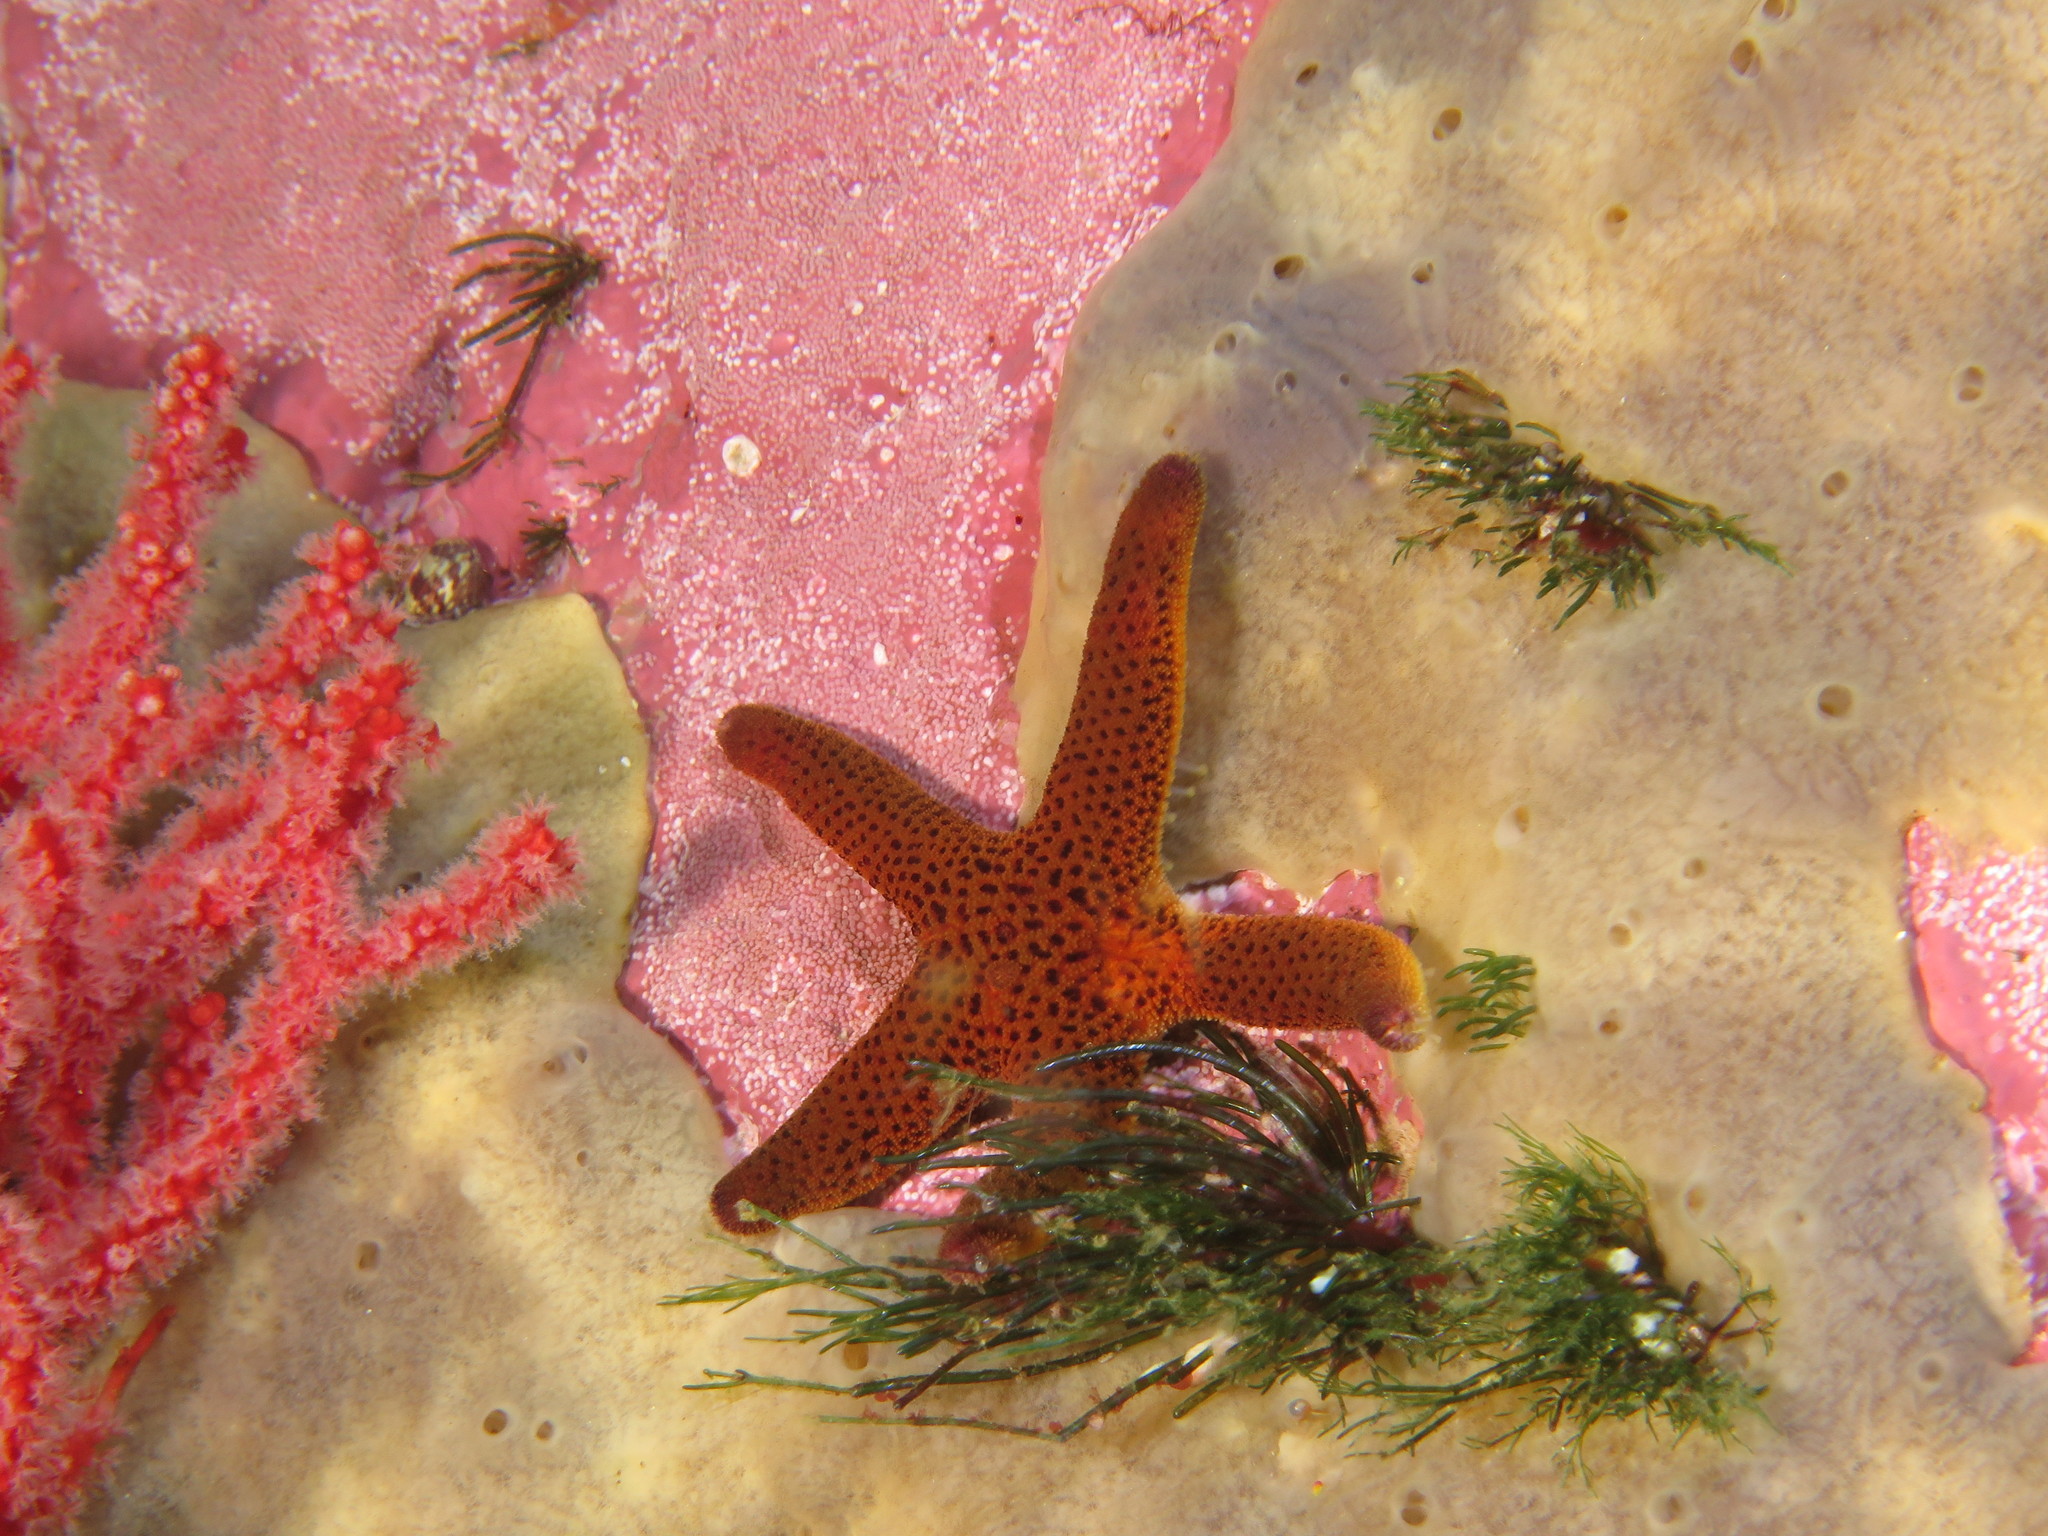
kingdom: Animalia
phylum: Echinodermata
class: Asteroidea
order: Spinulosida
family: Echinasteridae
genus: Henricia
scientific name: Henricia ornata
